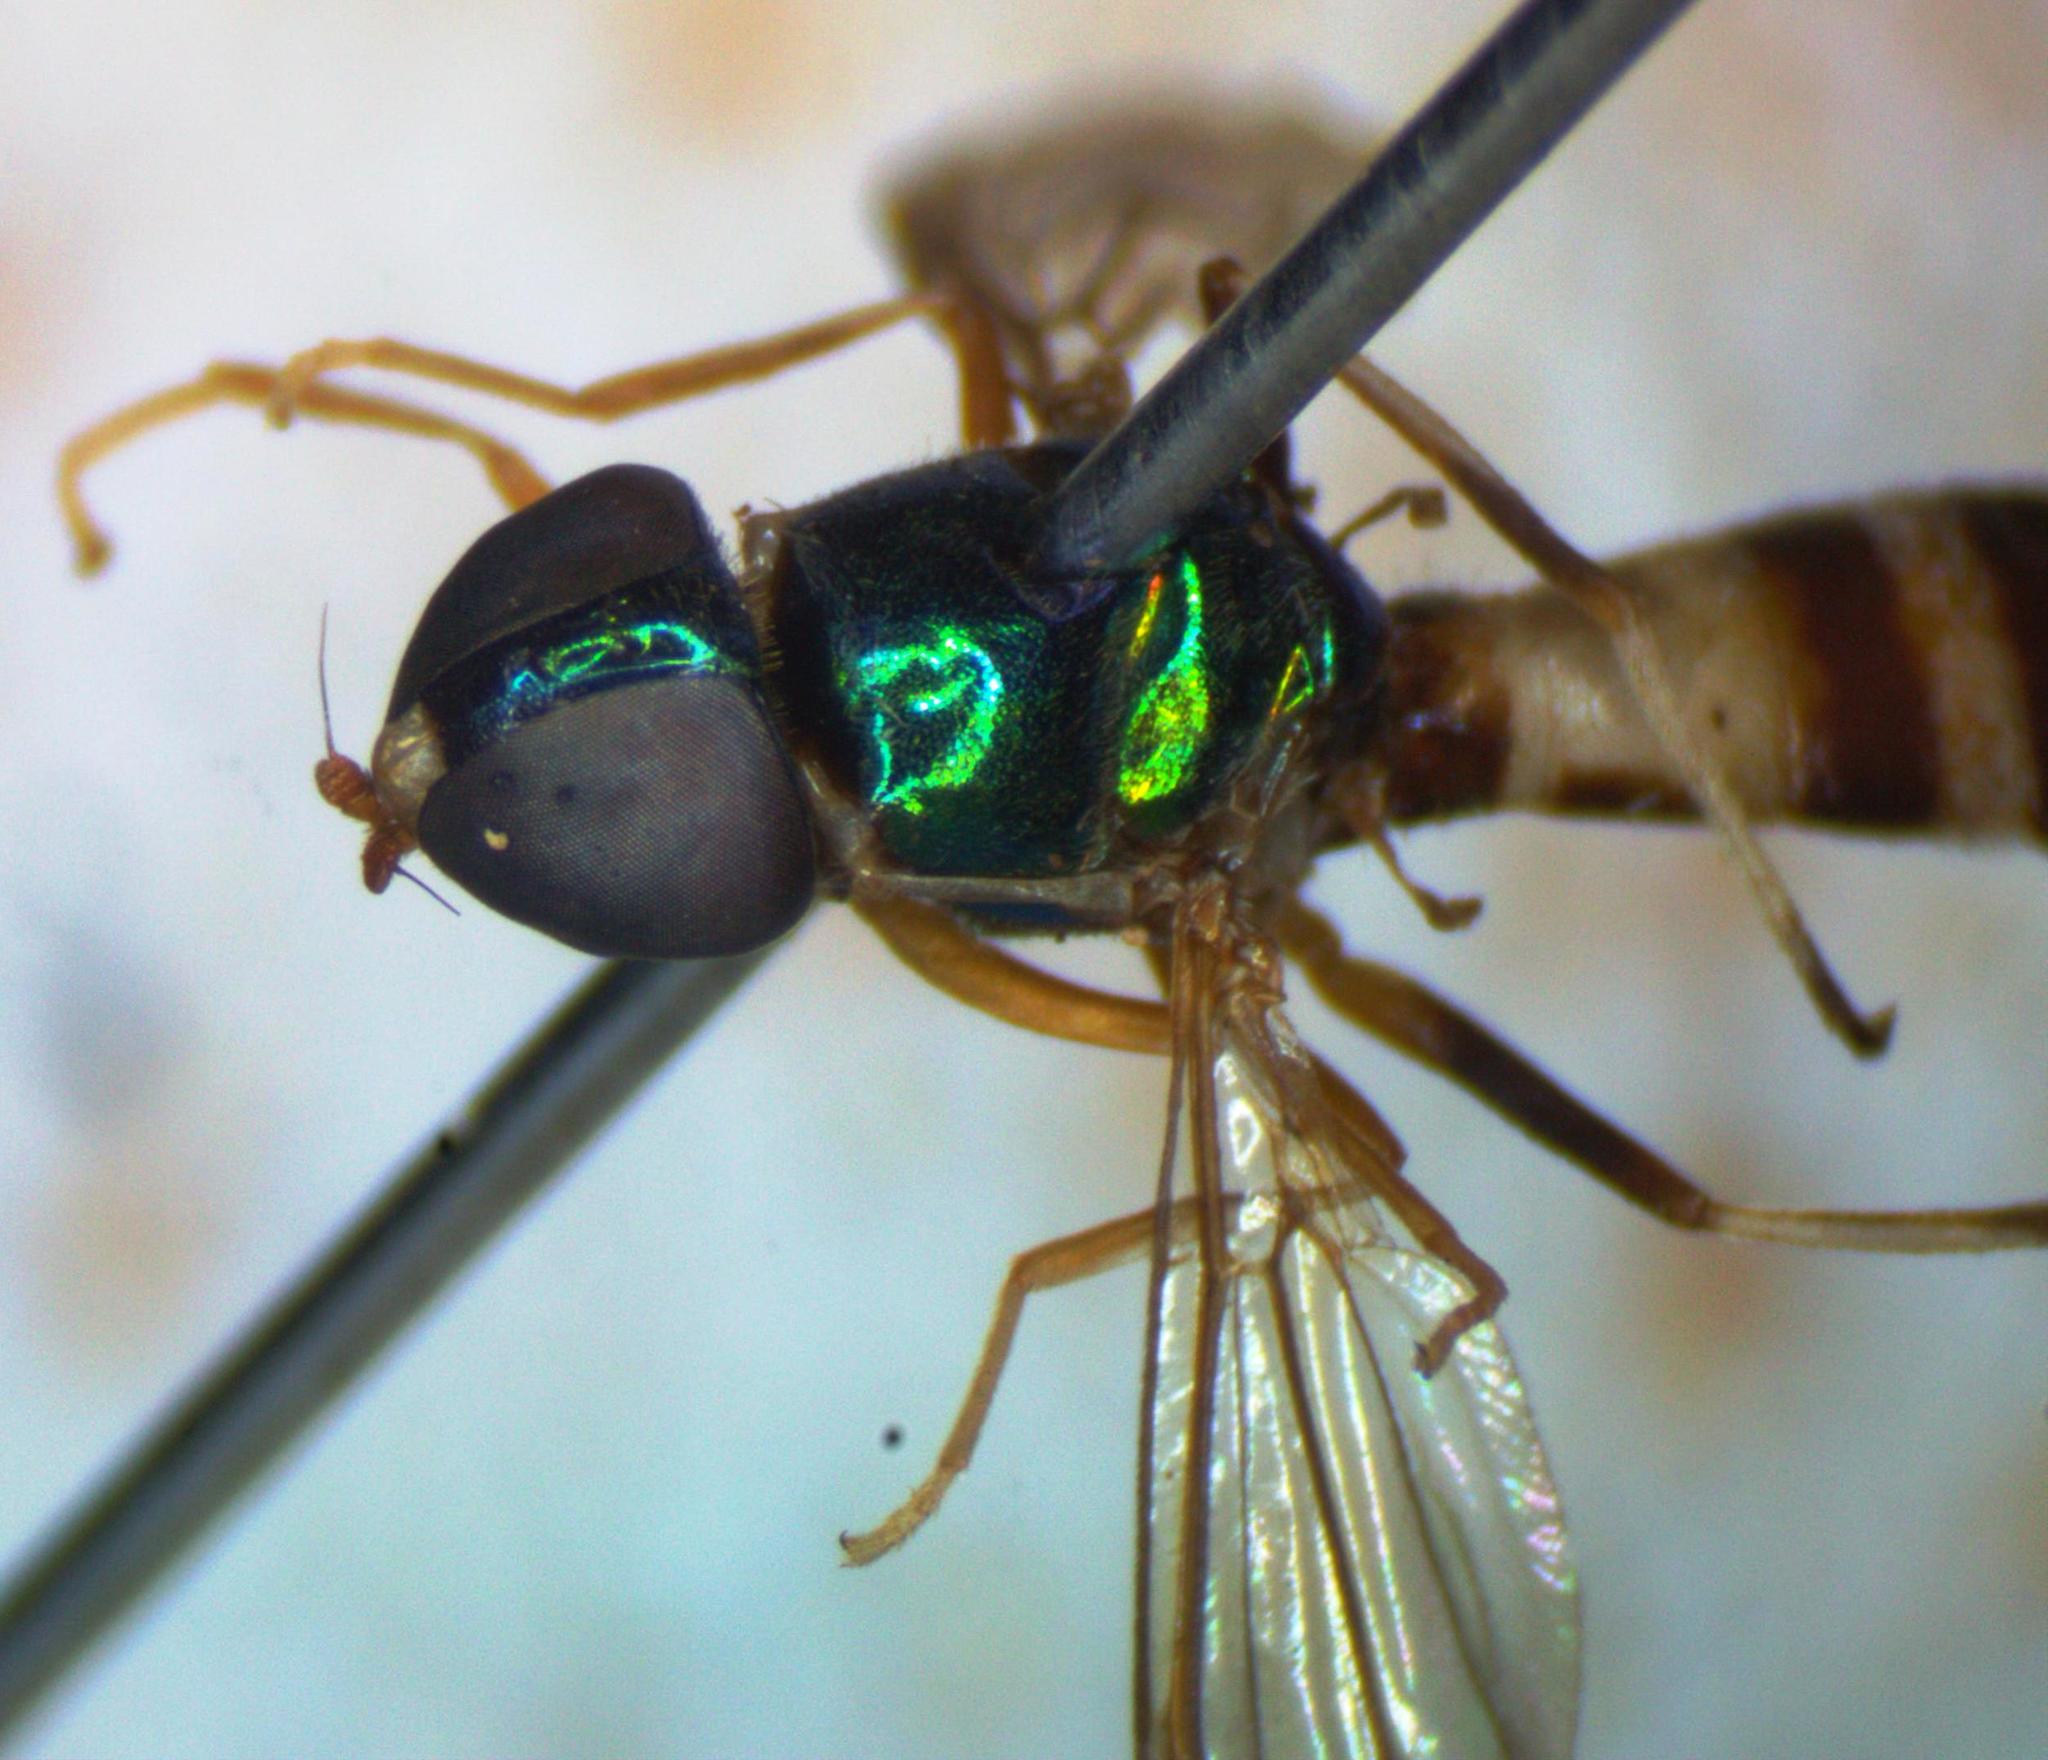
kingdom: Animalia
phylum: Arthropoda
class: Insecta
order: Diptera
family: Stratiomyidae
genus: Sargus
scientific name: Sargus fasciatus
